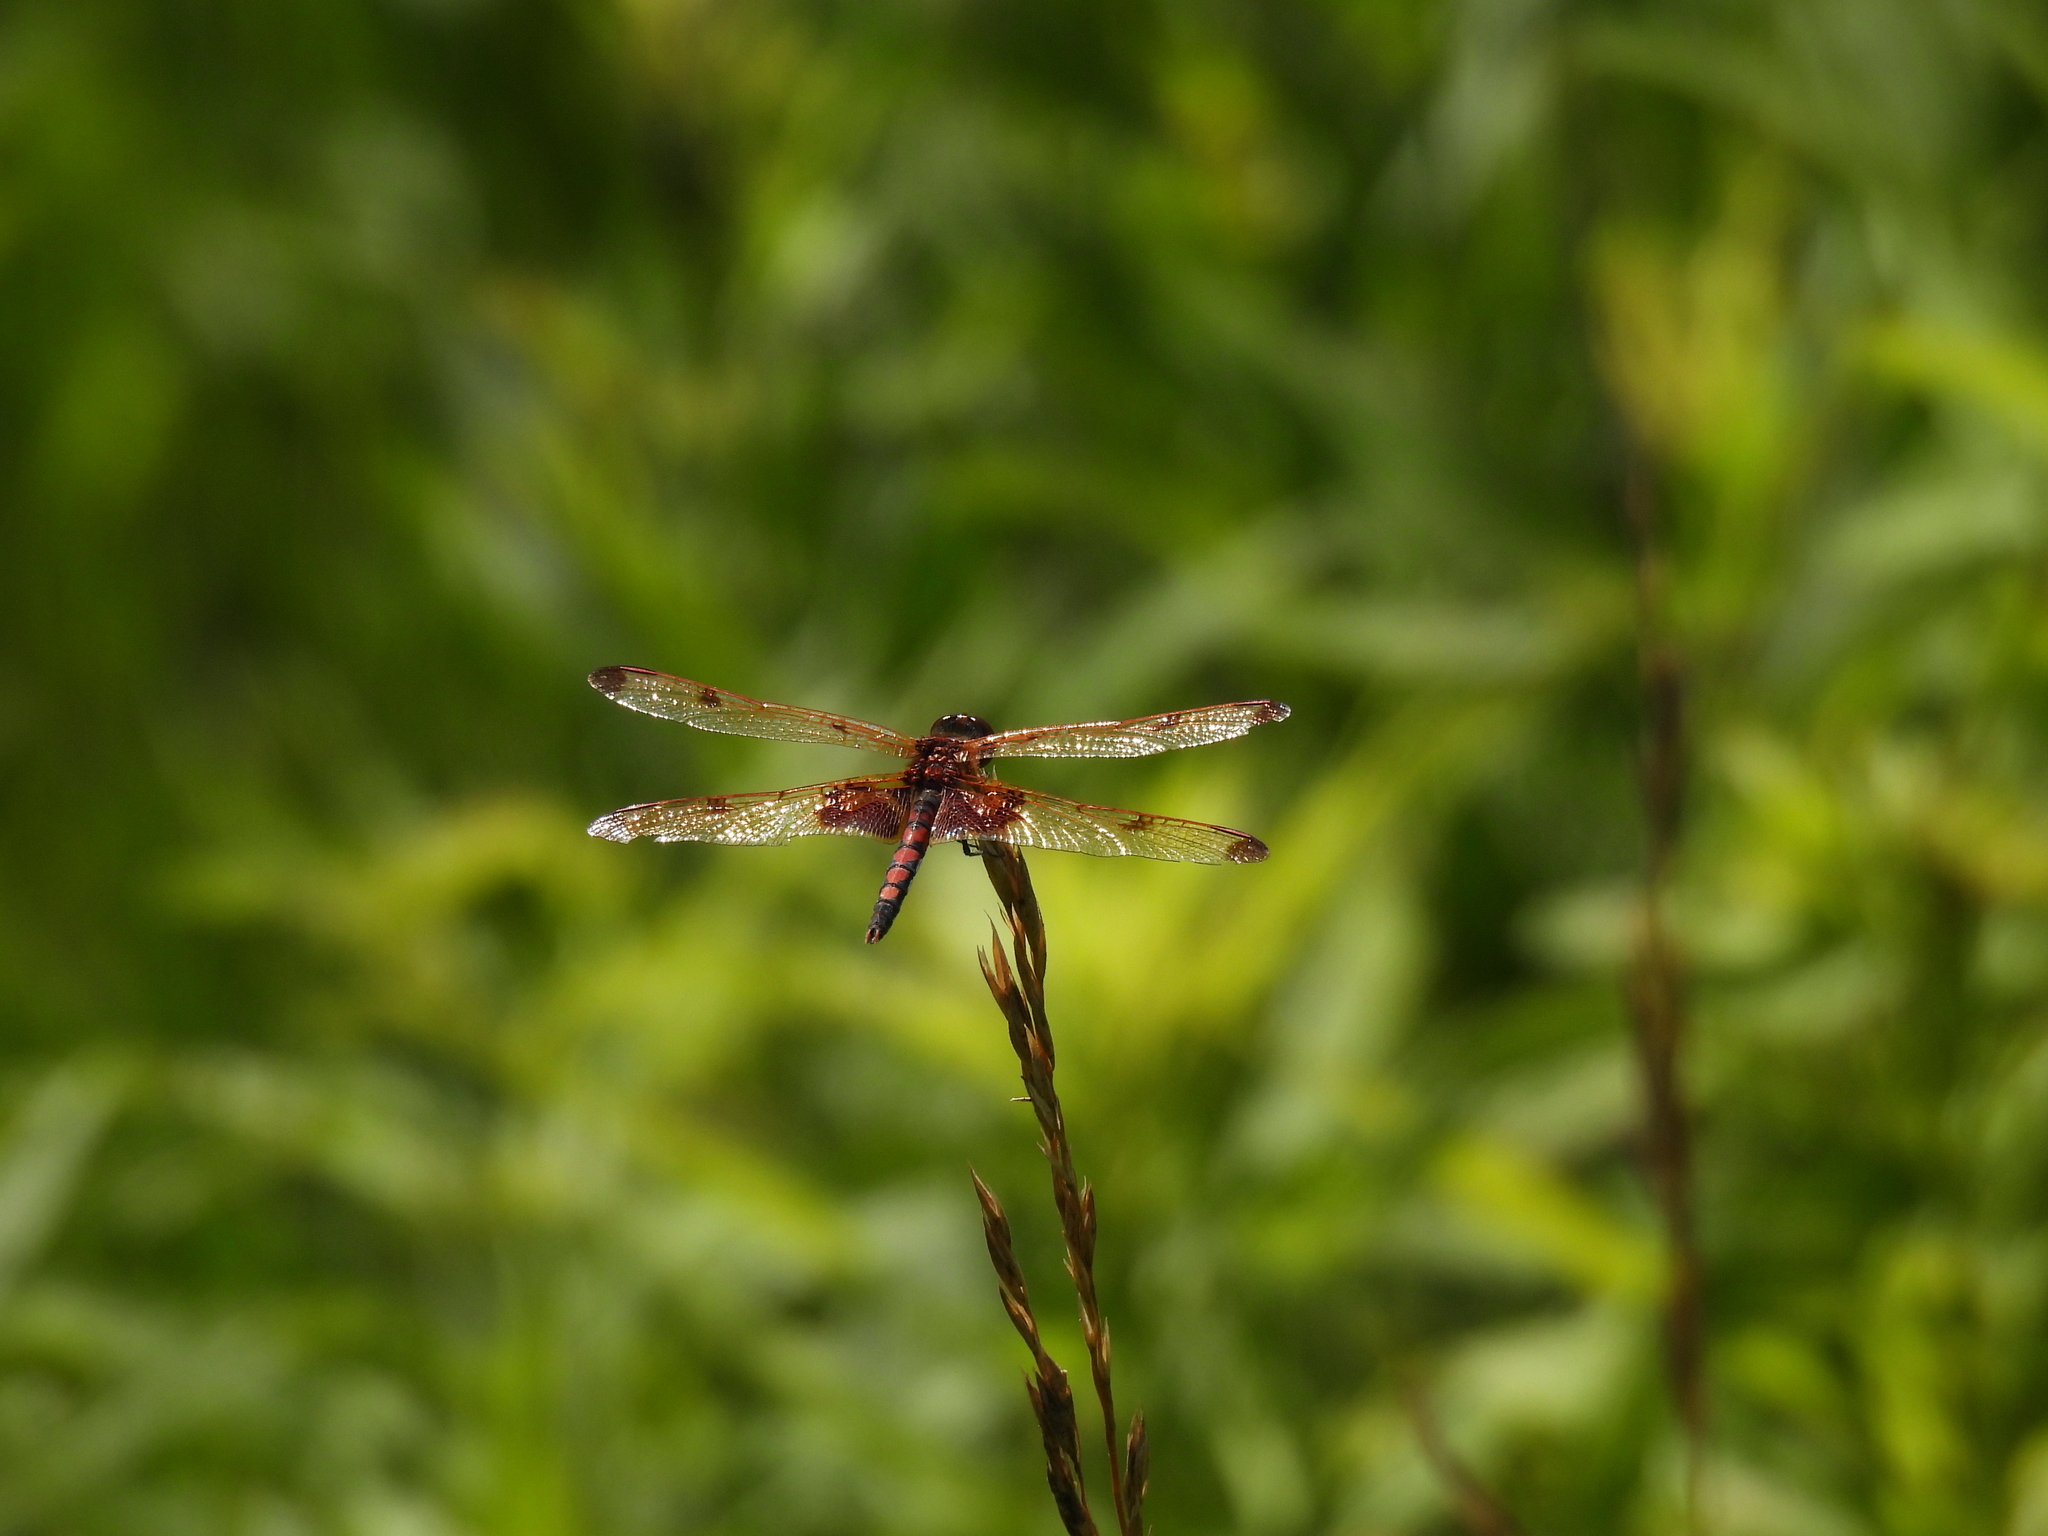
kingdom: Animalia
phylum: Arthropoda
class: Insecta
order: Odonata
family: Libellulidae
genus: Celithemis
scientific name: Celithemis elisa
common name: Calico pennant
